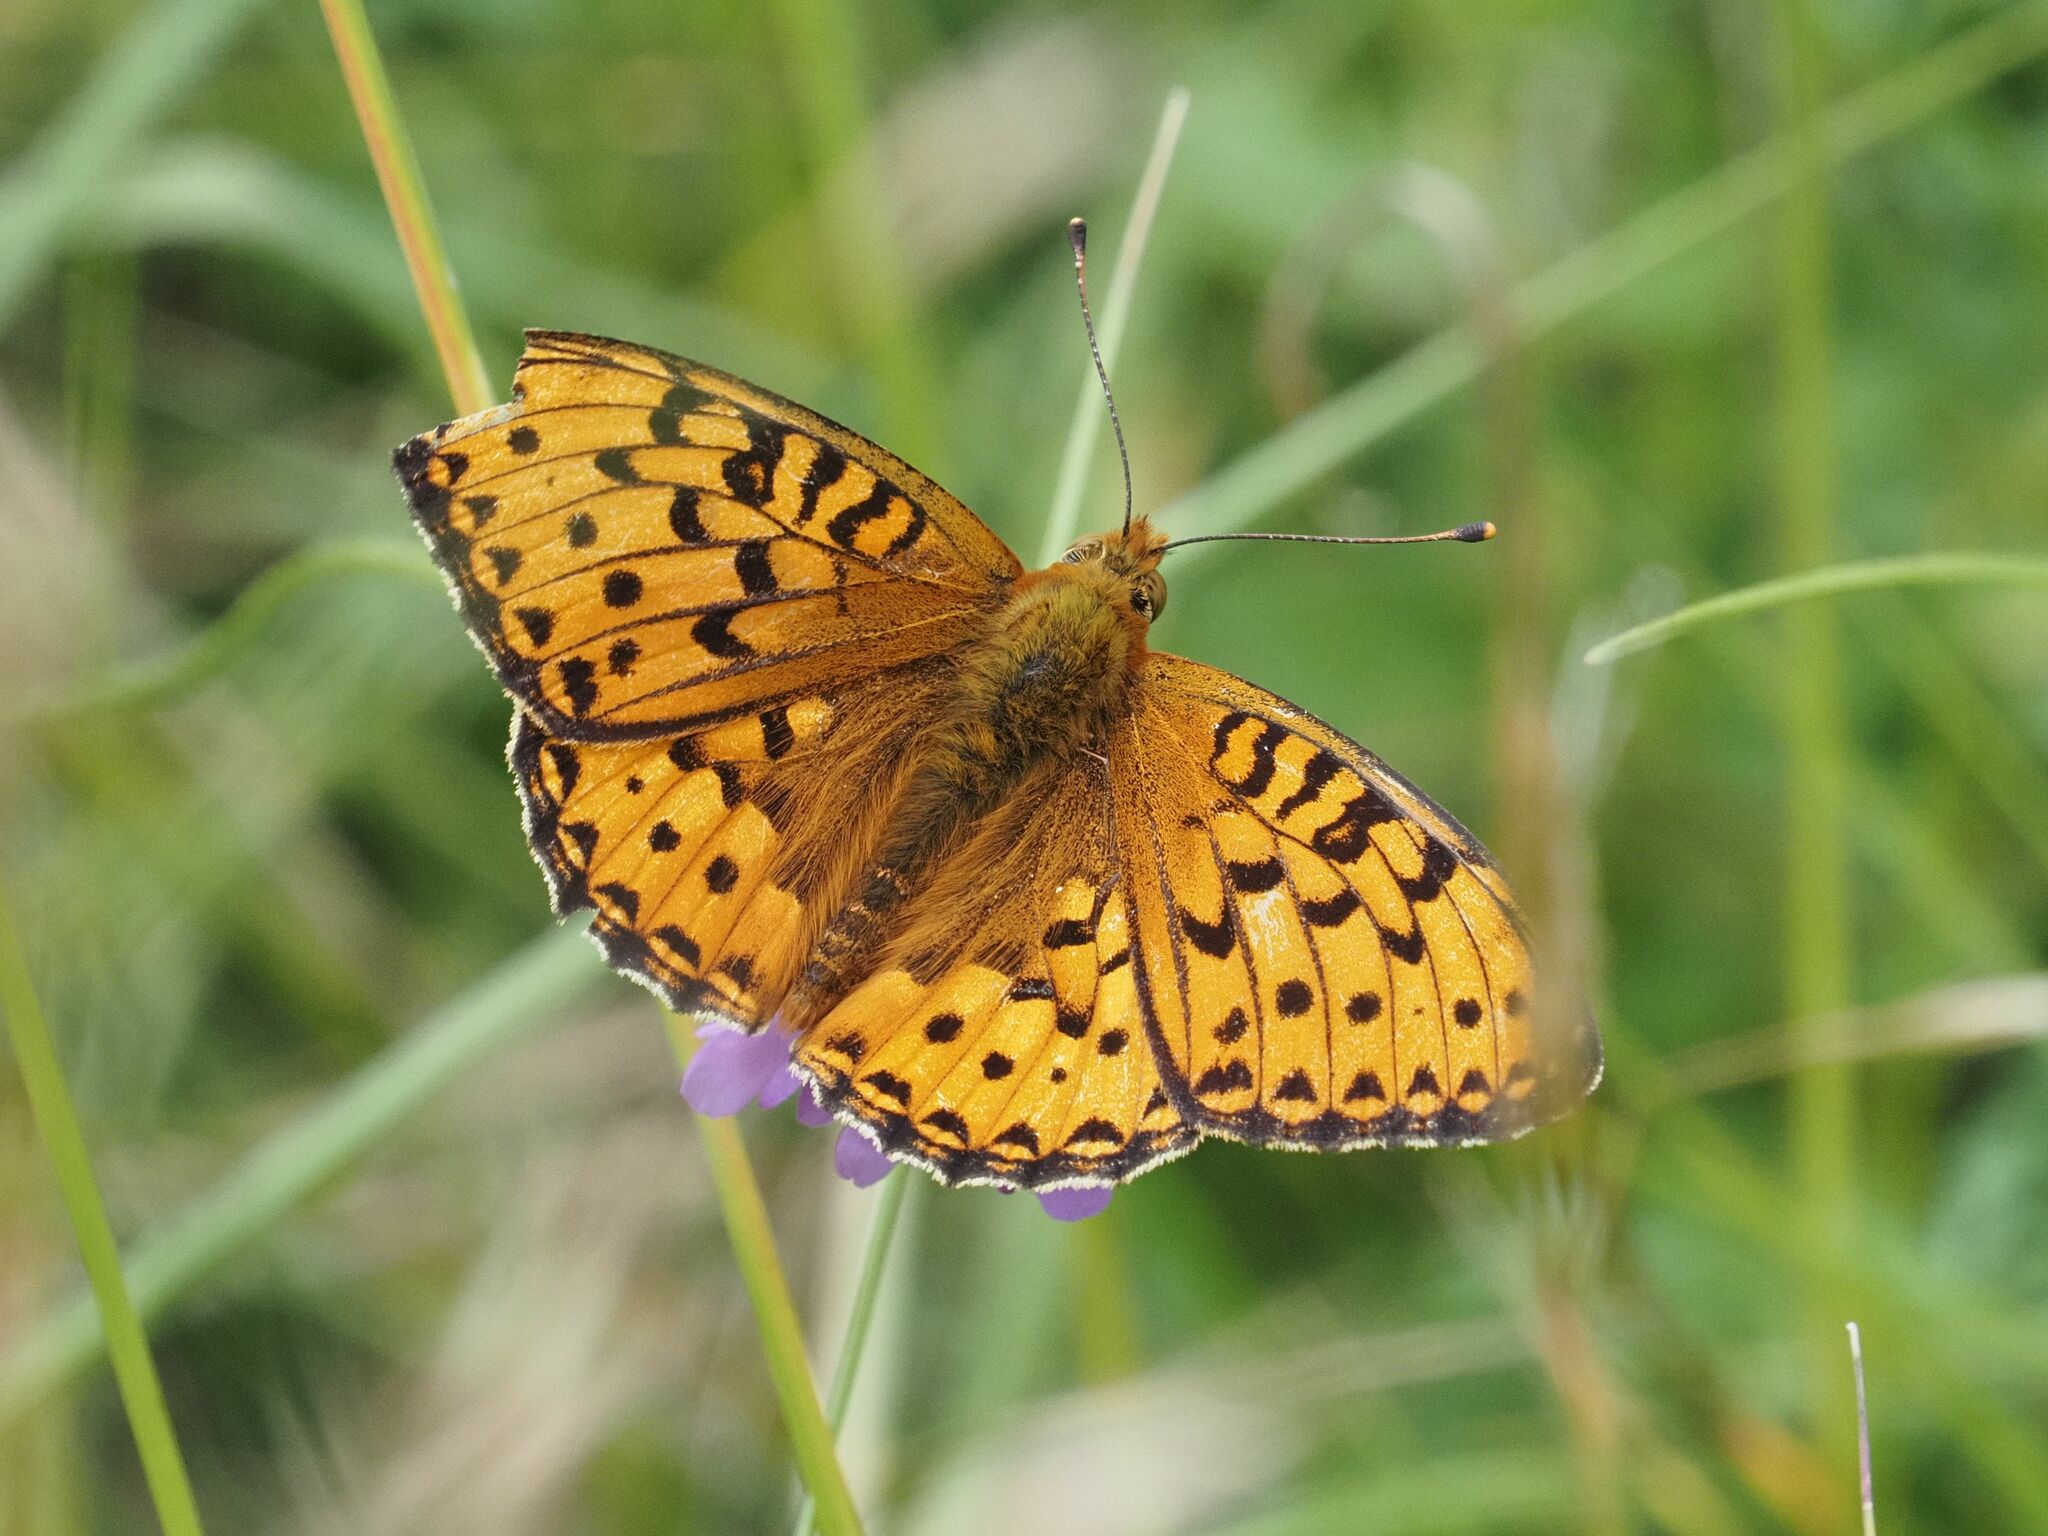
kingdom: Animalia
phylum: Arthropoda
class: Insecta
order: Lepidoptera
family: Nymphalidae
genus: Speyeria
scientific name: Speyeria aglaja
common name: Dark green fritillary
